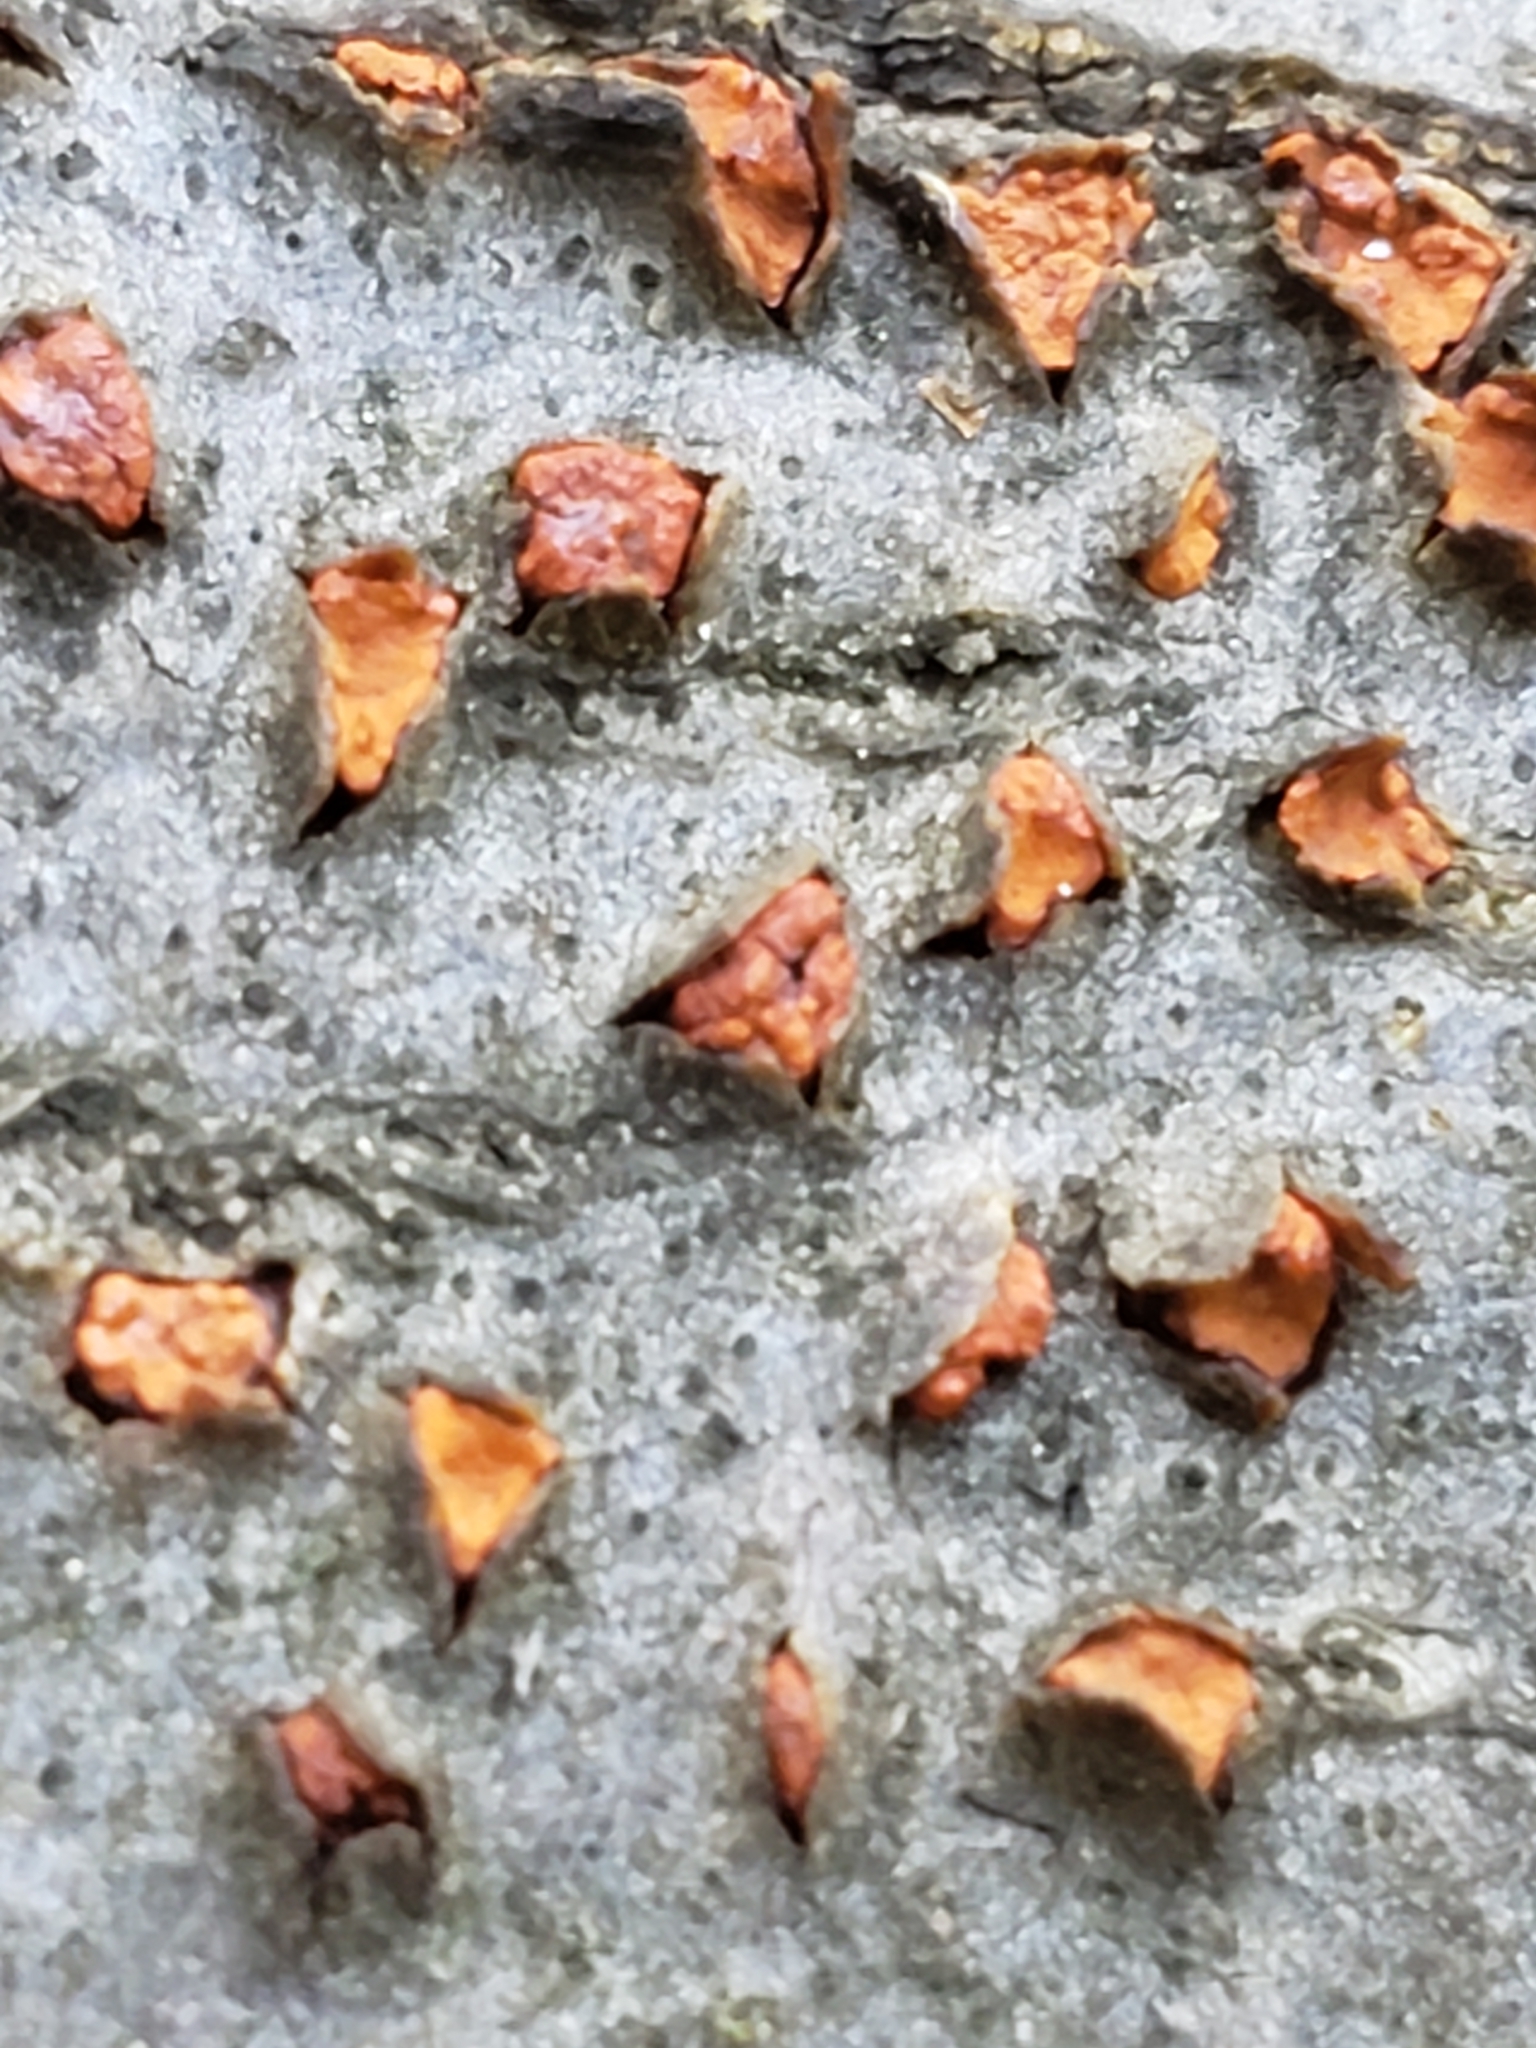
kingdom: Fungi
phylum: Ascomycota
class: Sordariomycetes
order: Diaporthales
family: Cryphonectriaceae
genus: Amphilogia
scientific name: Amphilogia gyrosa
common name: Orange hobnail canker
